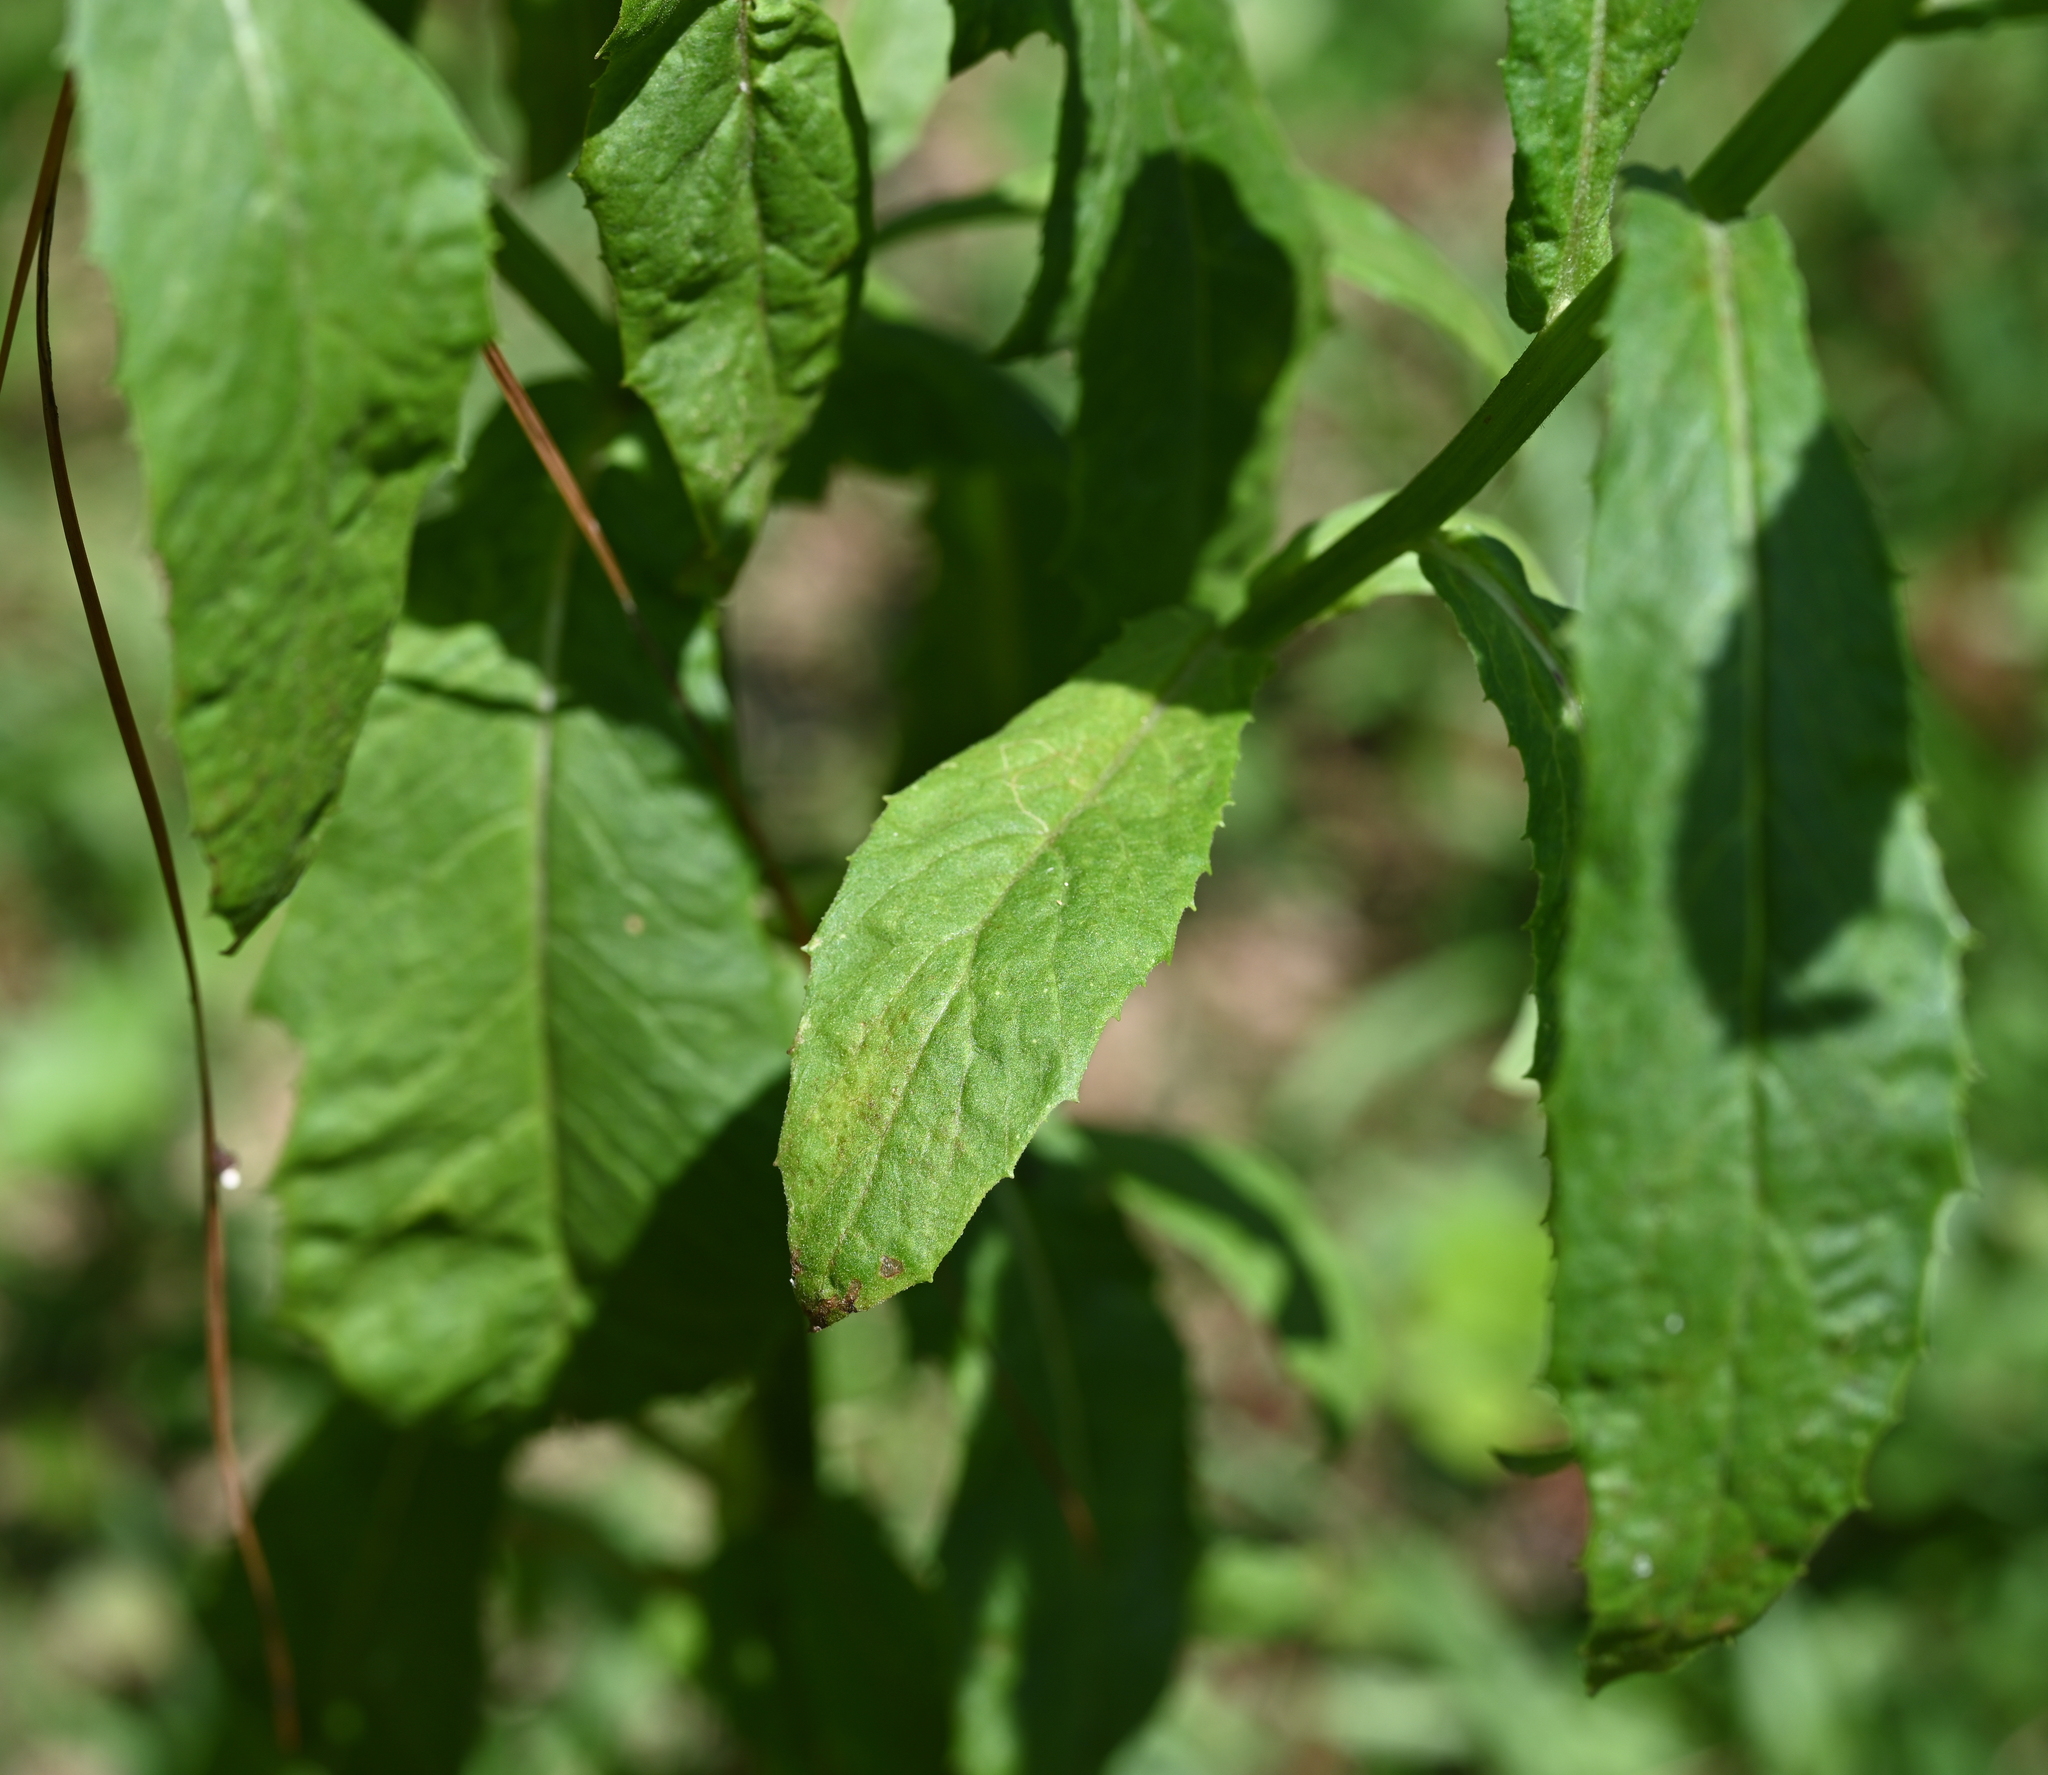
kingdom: Plantae
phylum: Tracheophyta
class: Magnoliopsida
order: Asterales
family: Asteraceae
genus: Erechtites
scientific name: Erechtites hieraciifolius
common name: American burnweed
